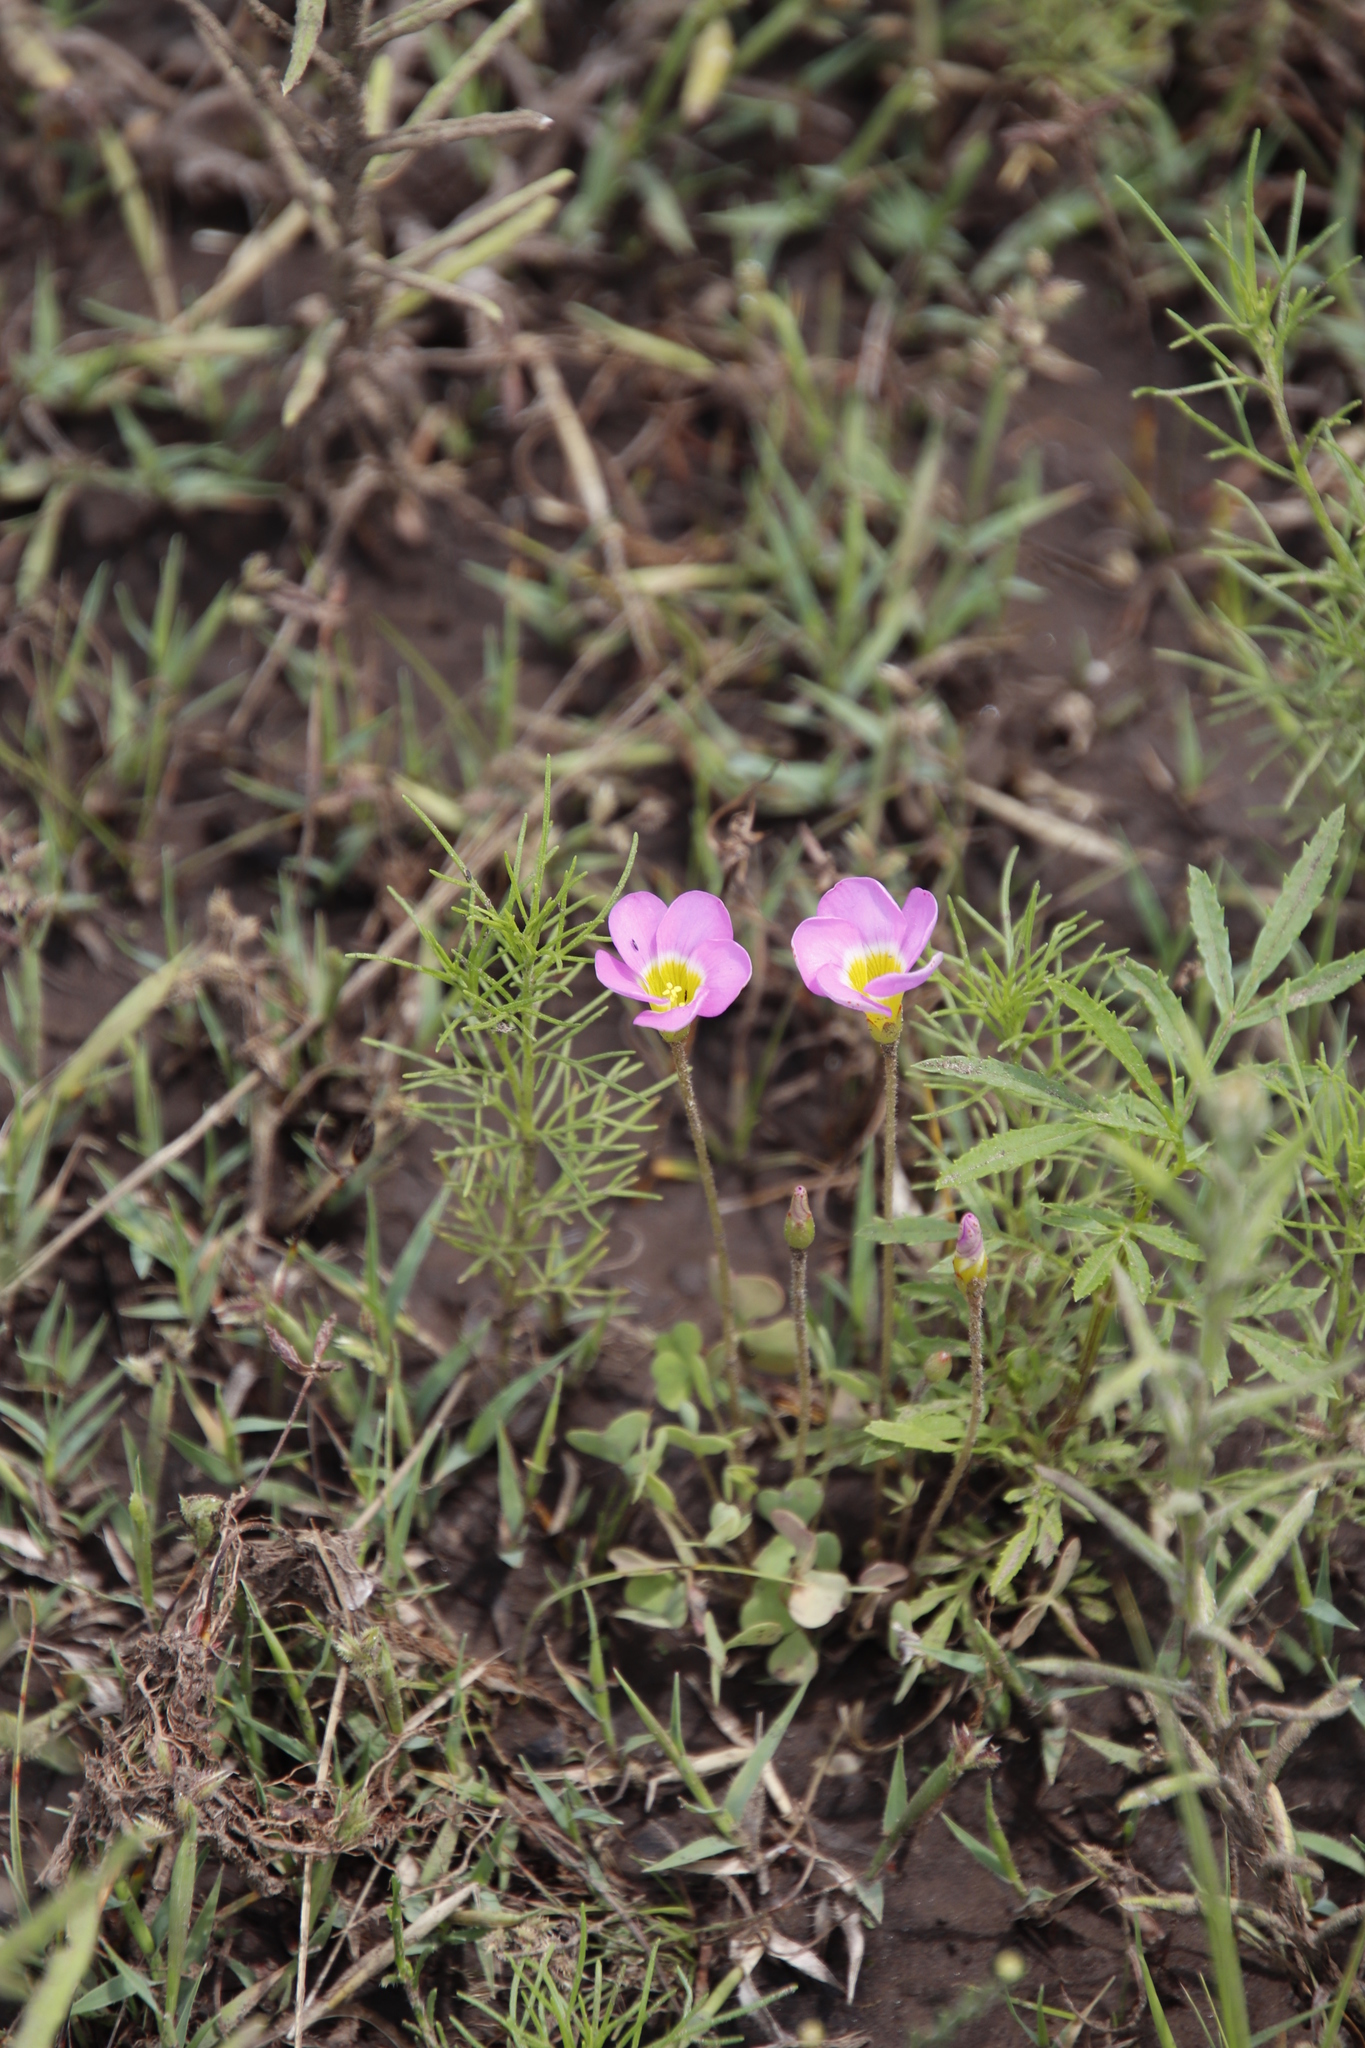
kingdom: Plantae
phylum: Tracheophyta
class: Magnoliopsida
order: Oxalidales
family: Oxalidaceae
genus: Oxalis
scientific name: Oxalis obliquifolia
